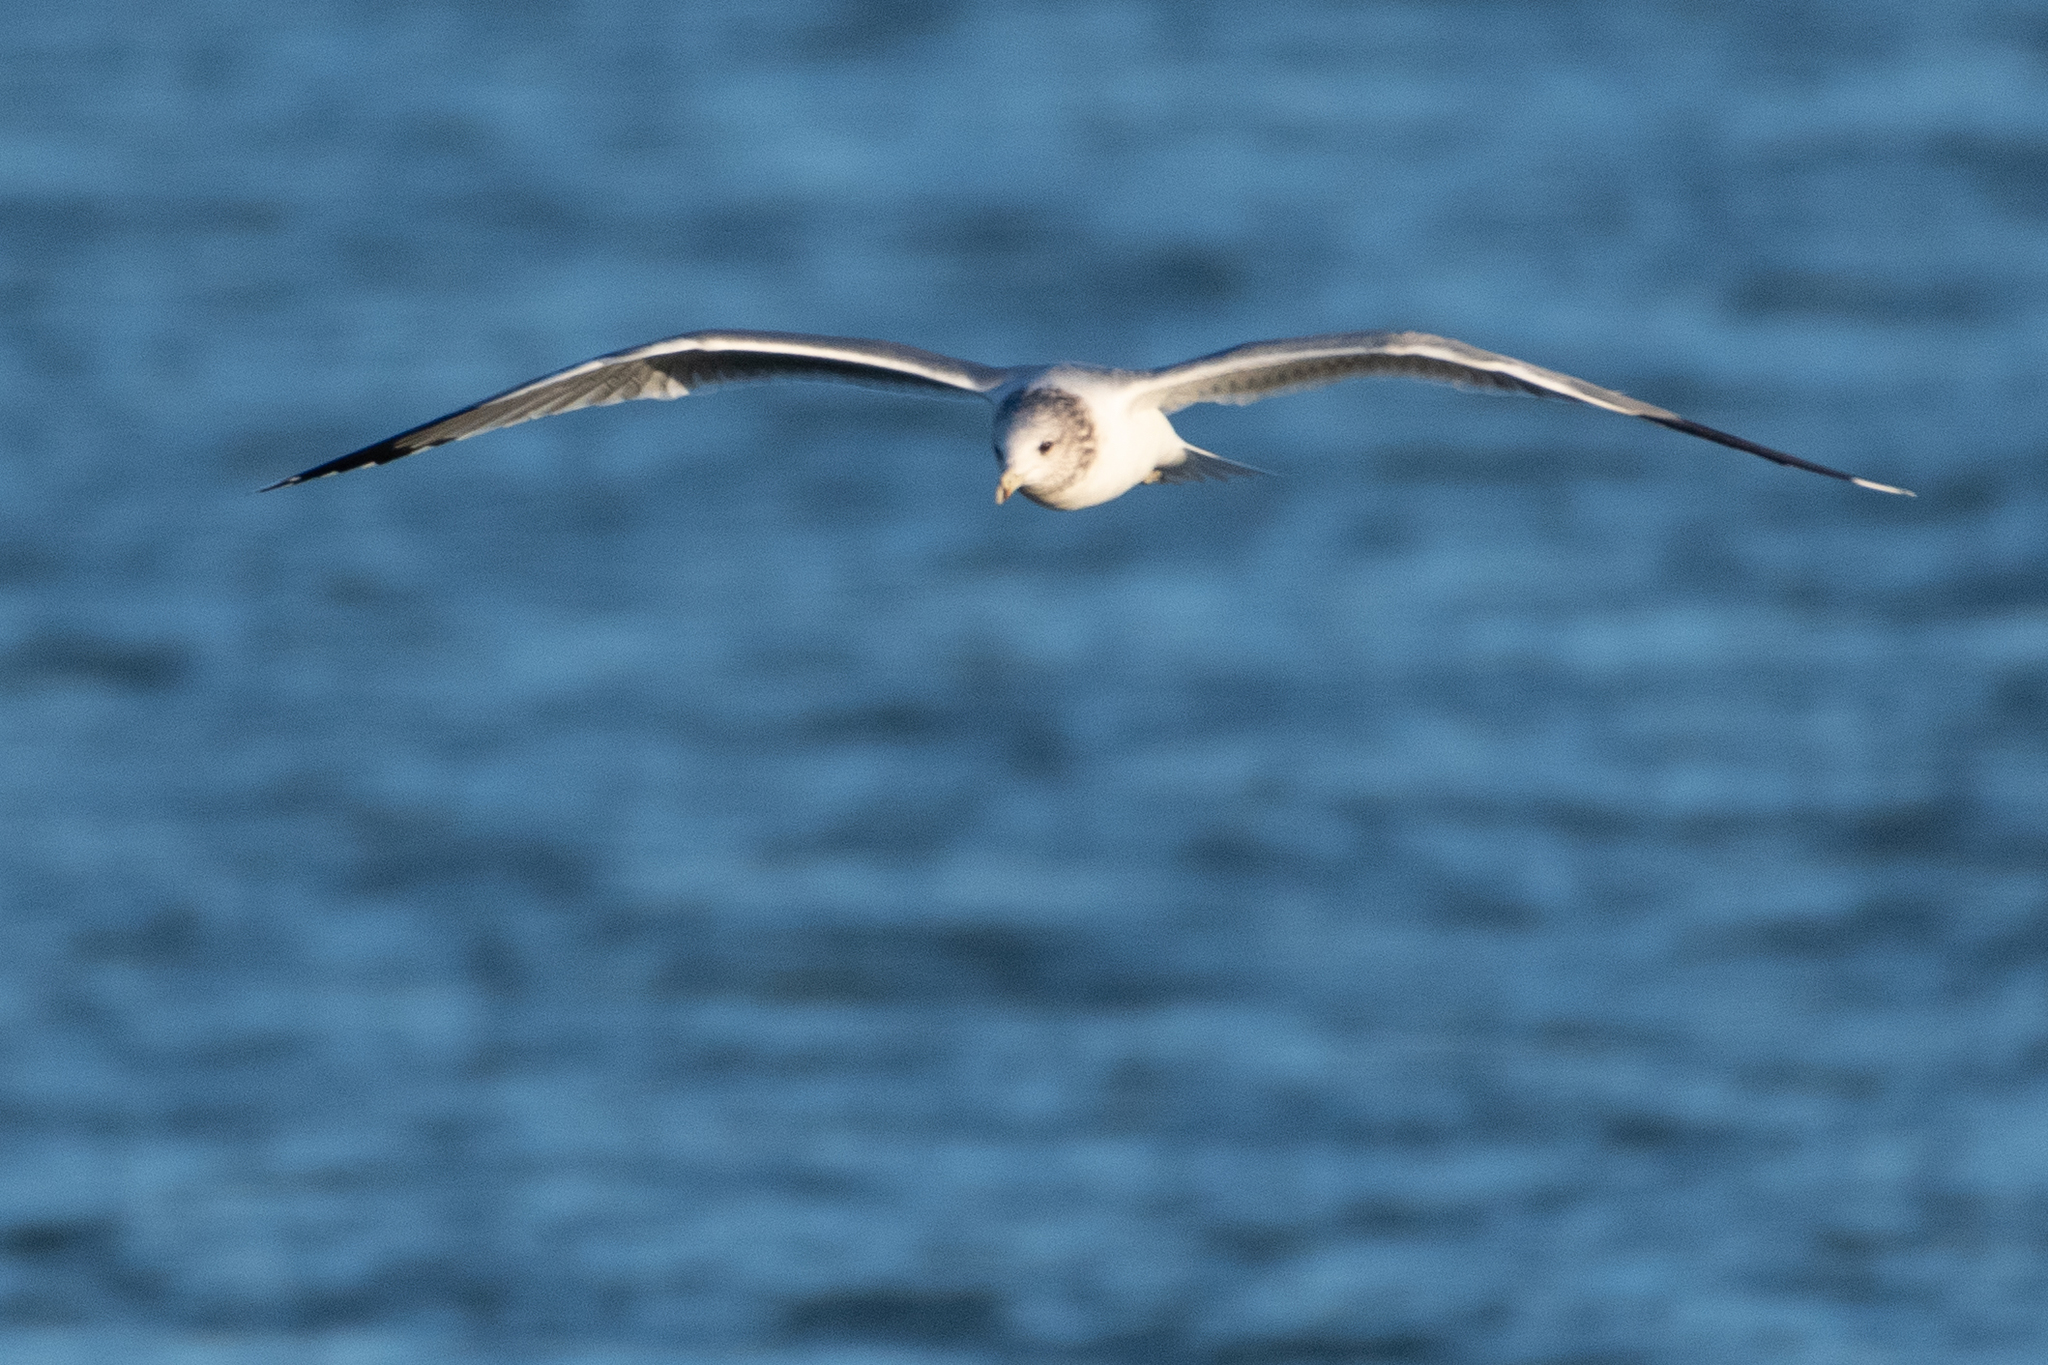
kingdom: Animalia
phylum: Chordata
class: Aves
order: Charadriiformes
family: Laridae
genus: Larus
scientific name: Larus californicus
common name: California gull
